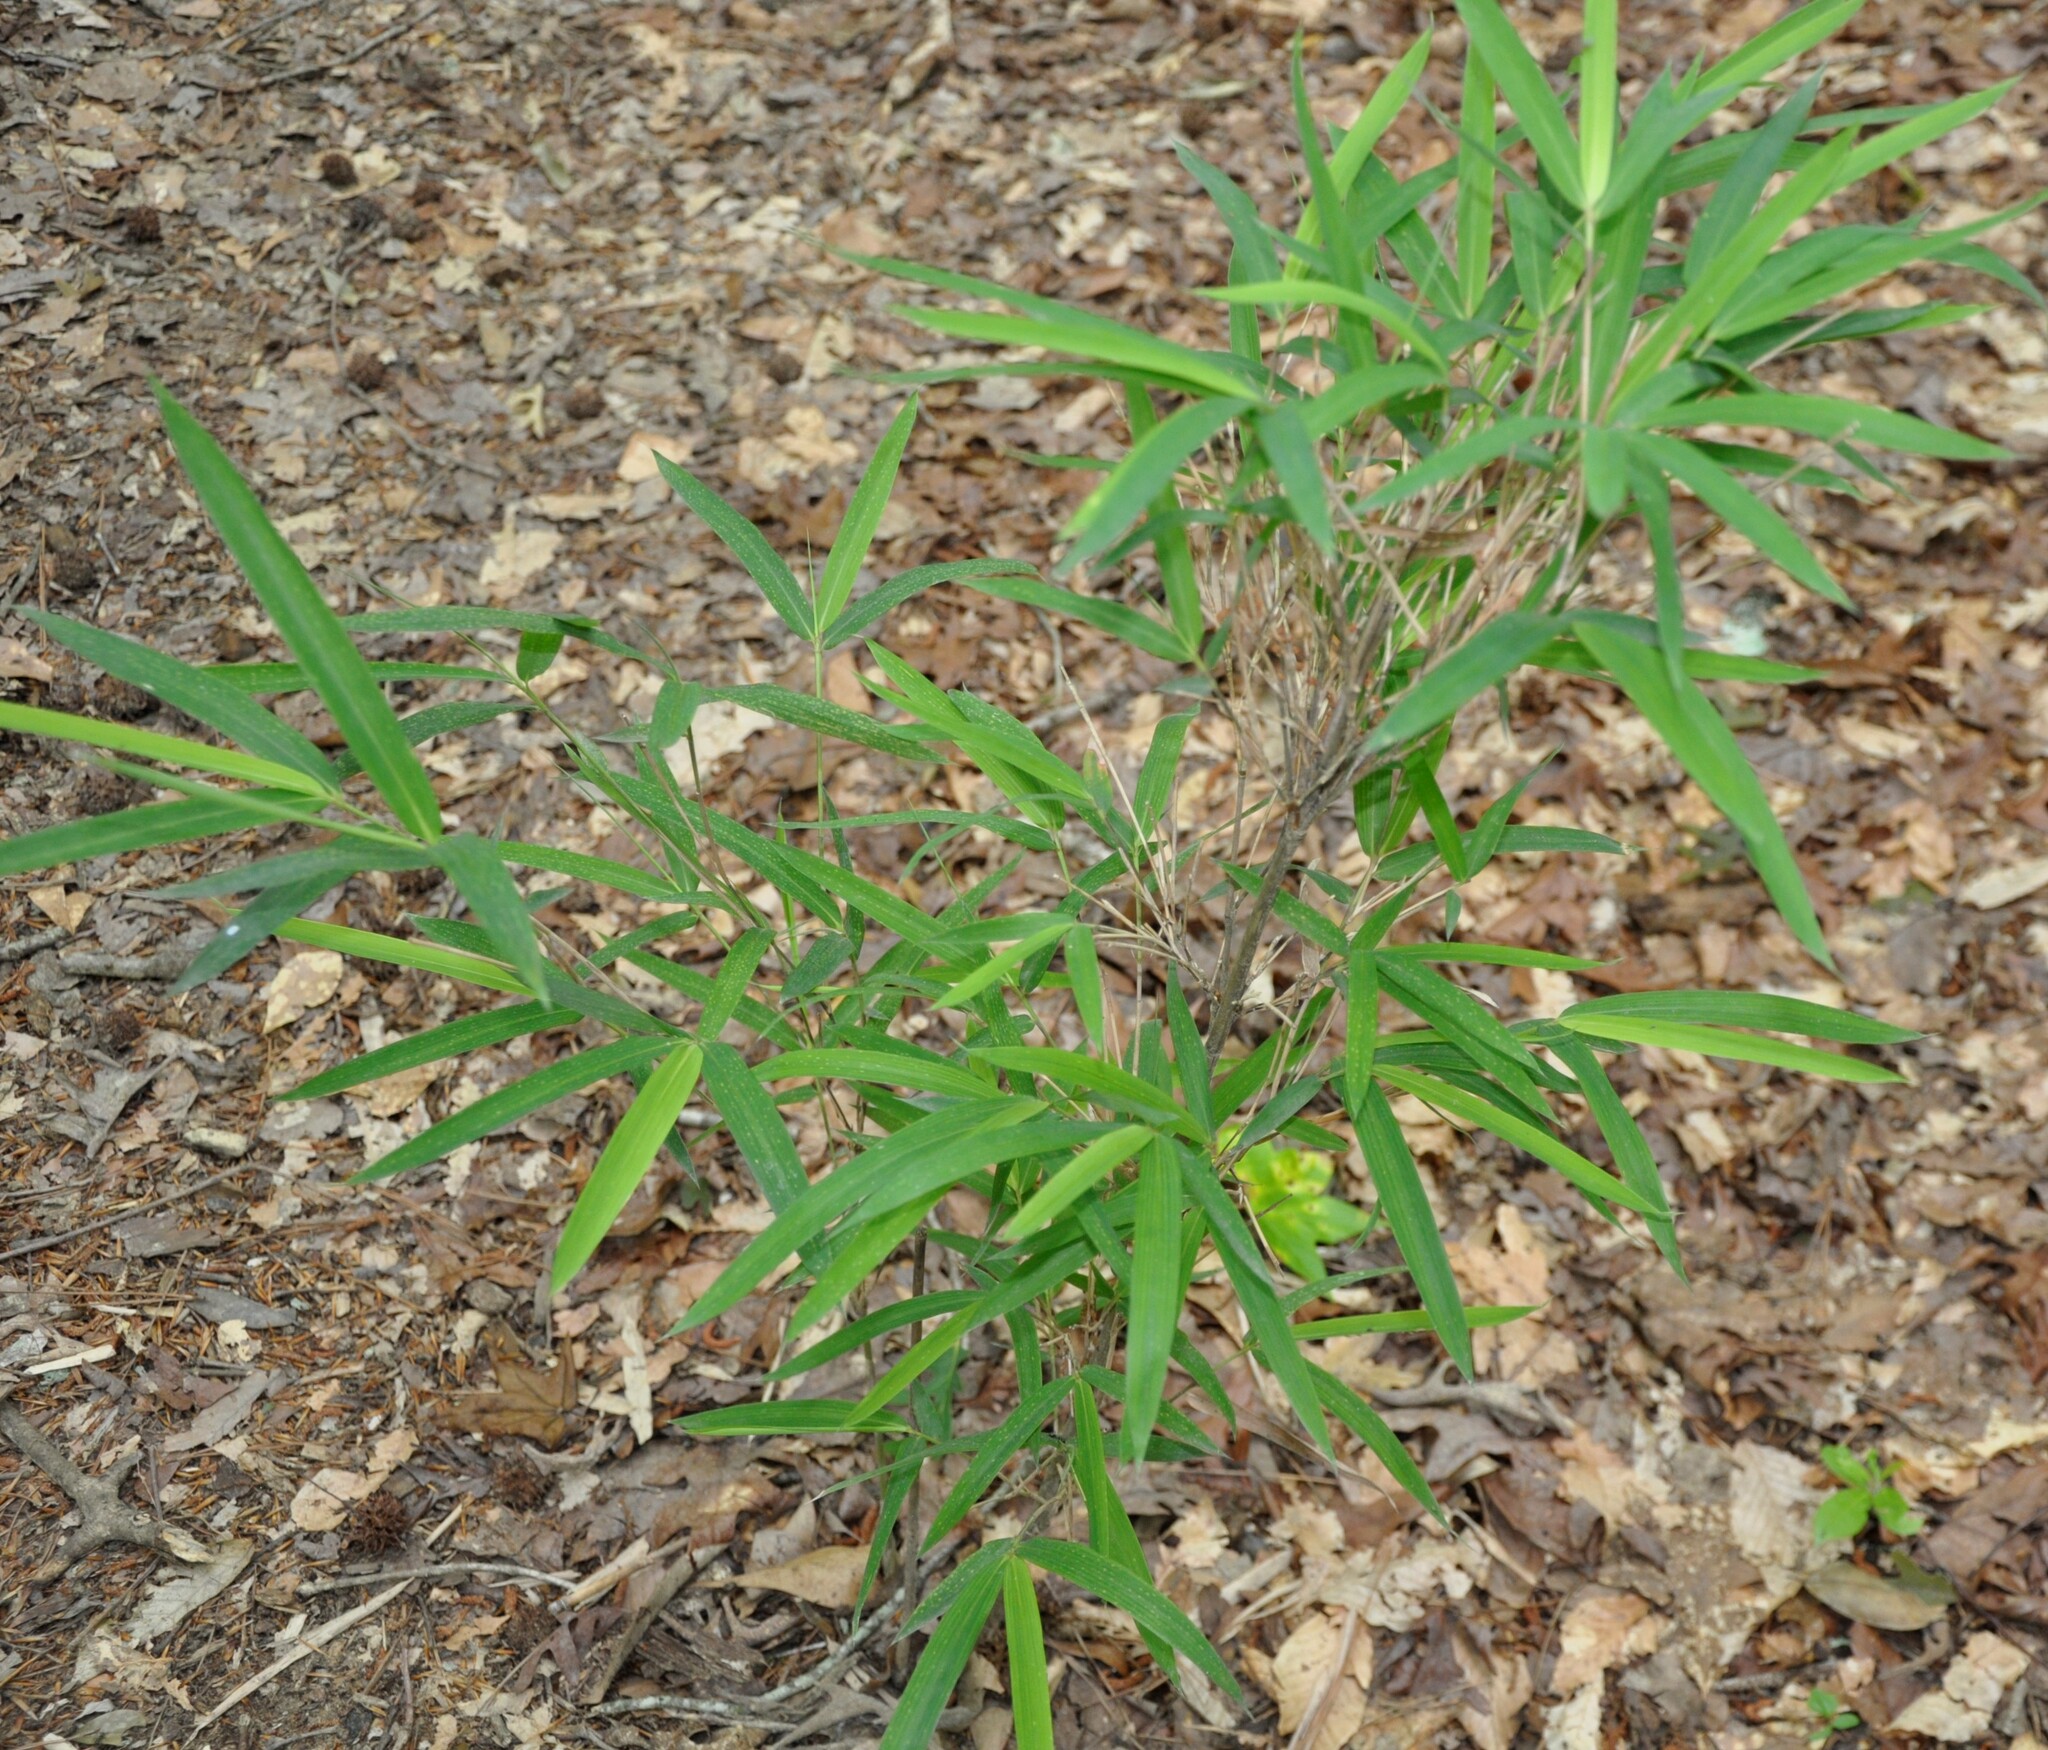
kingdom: Plantae
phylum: Tracheophyta
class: Liliopsida
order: Poales
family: Poaceae
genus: Arundinaria
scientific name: Arundinaria tecta
